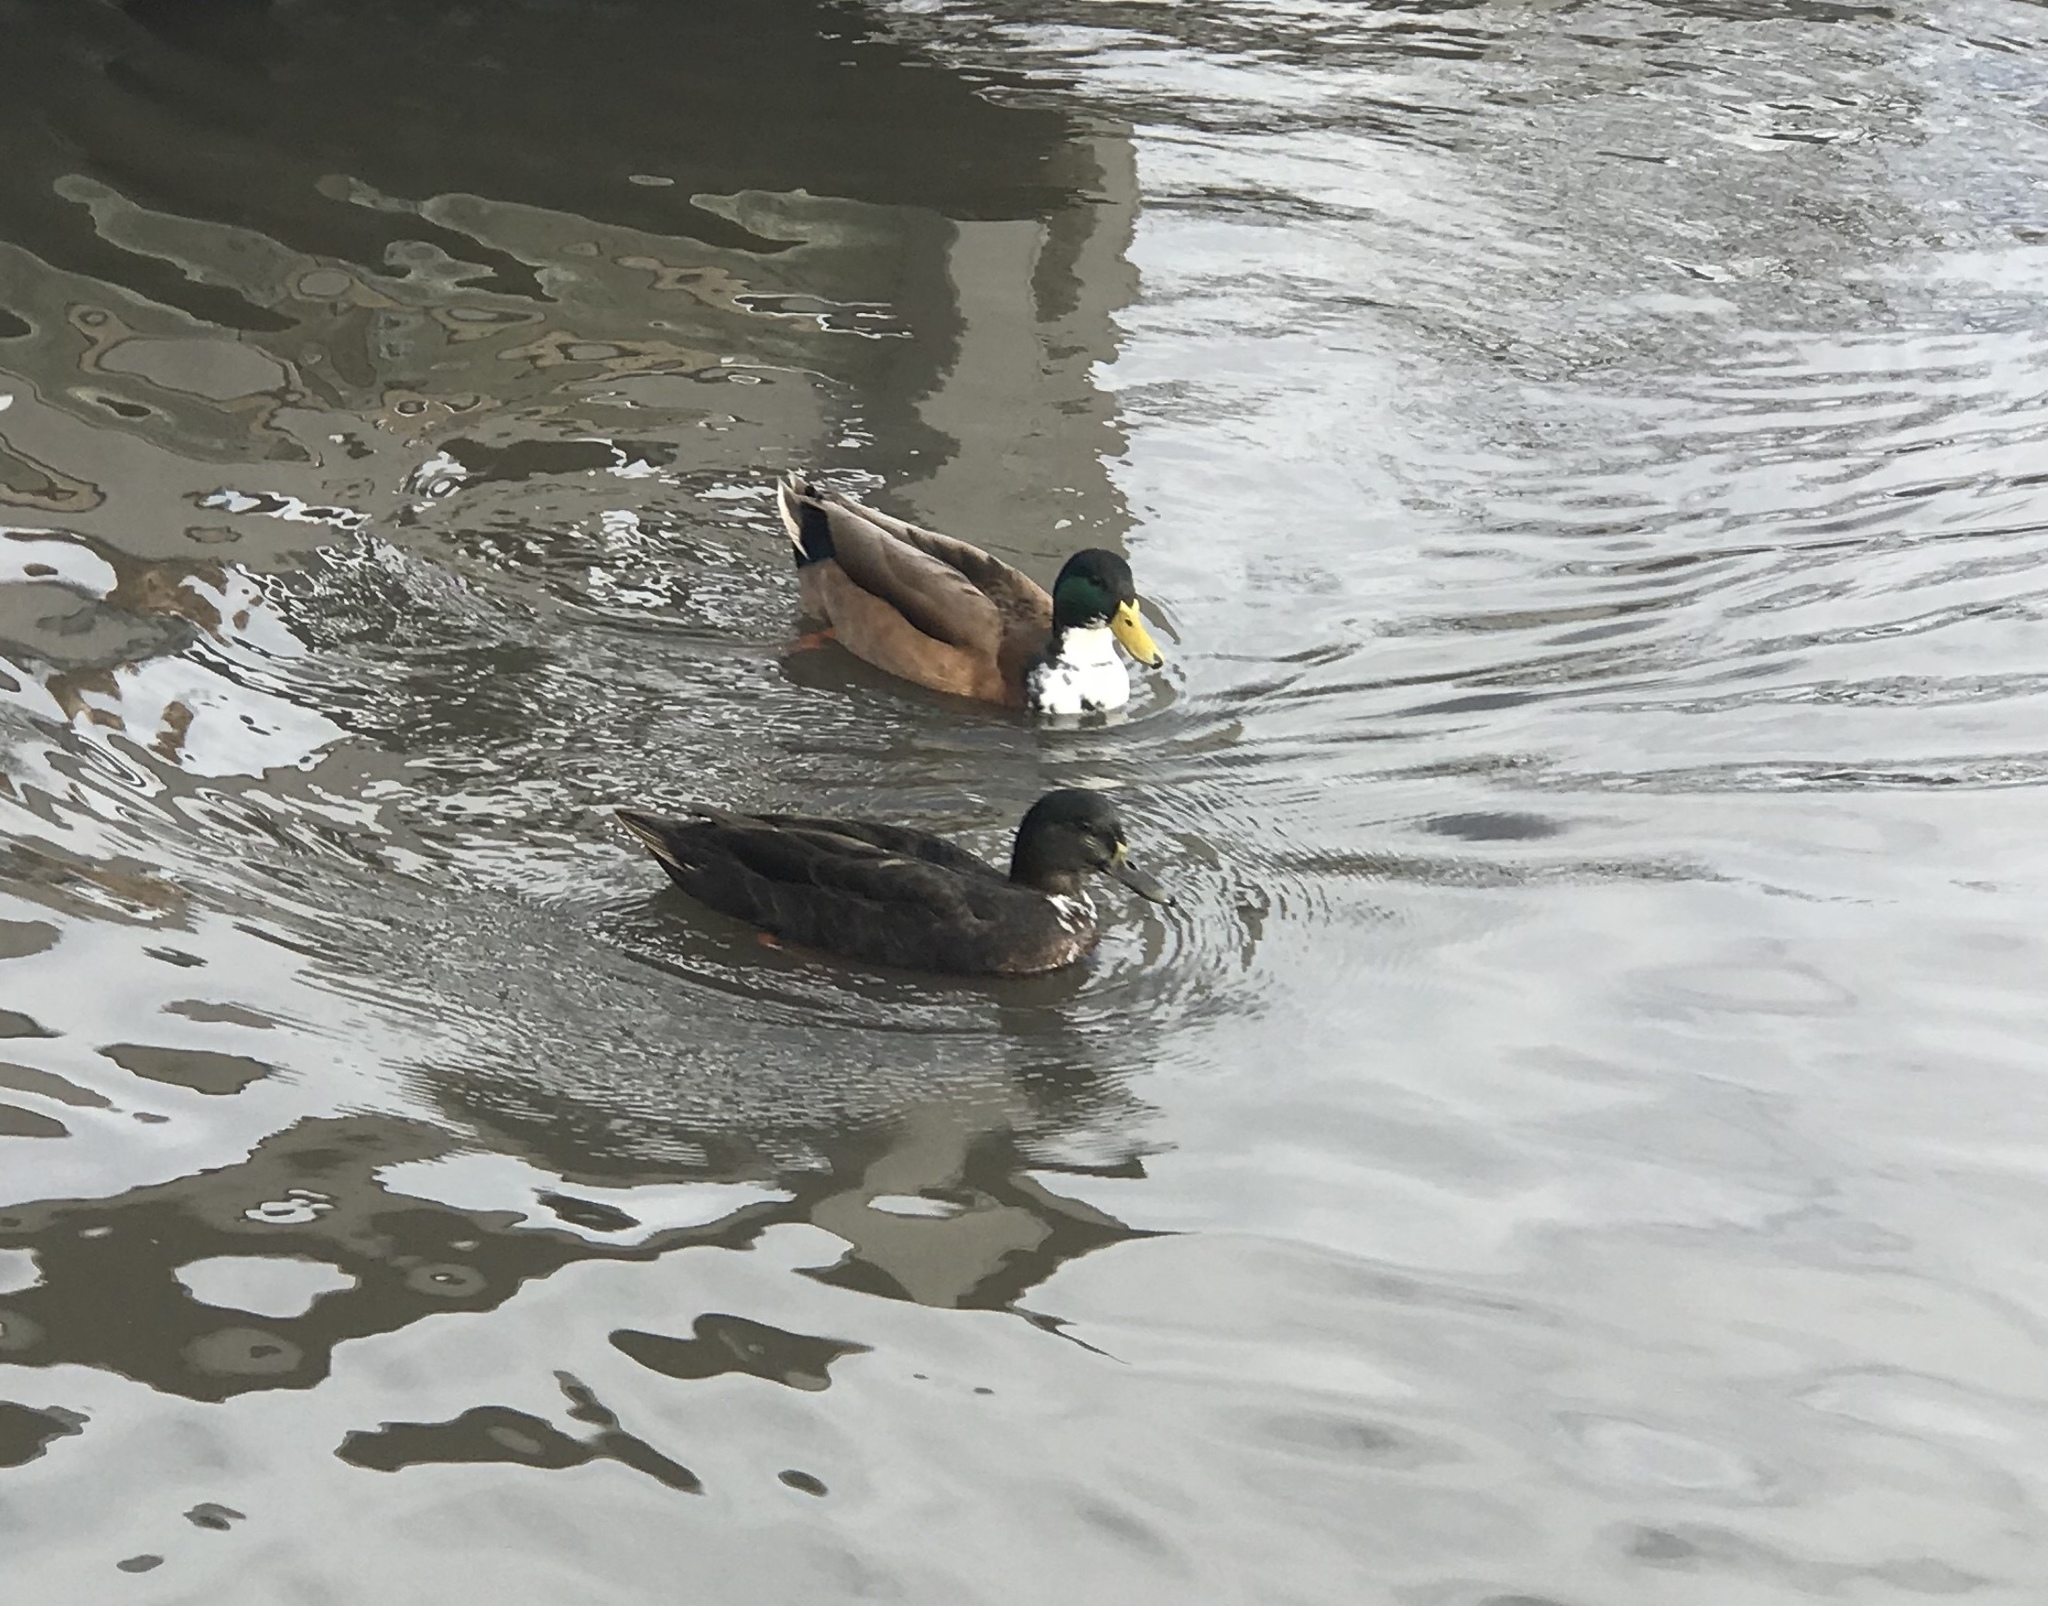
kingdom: Animalia
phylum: Chordata
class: Aves
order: Anseriformes
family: Anatidae
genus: Anas
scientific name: Anas platyrhynchos
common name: Mallard
